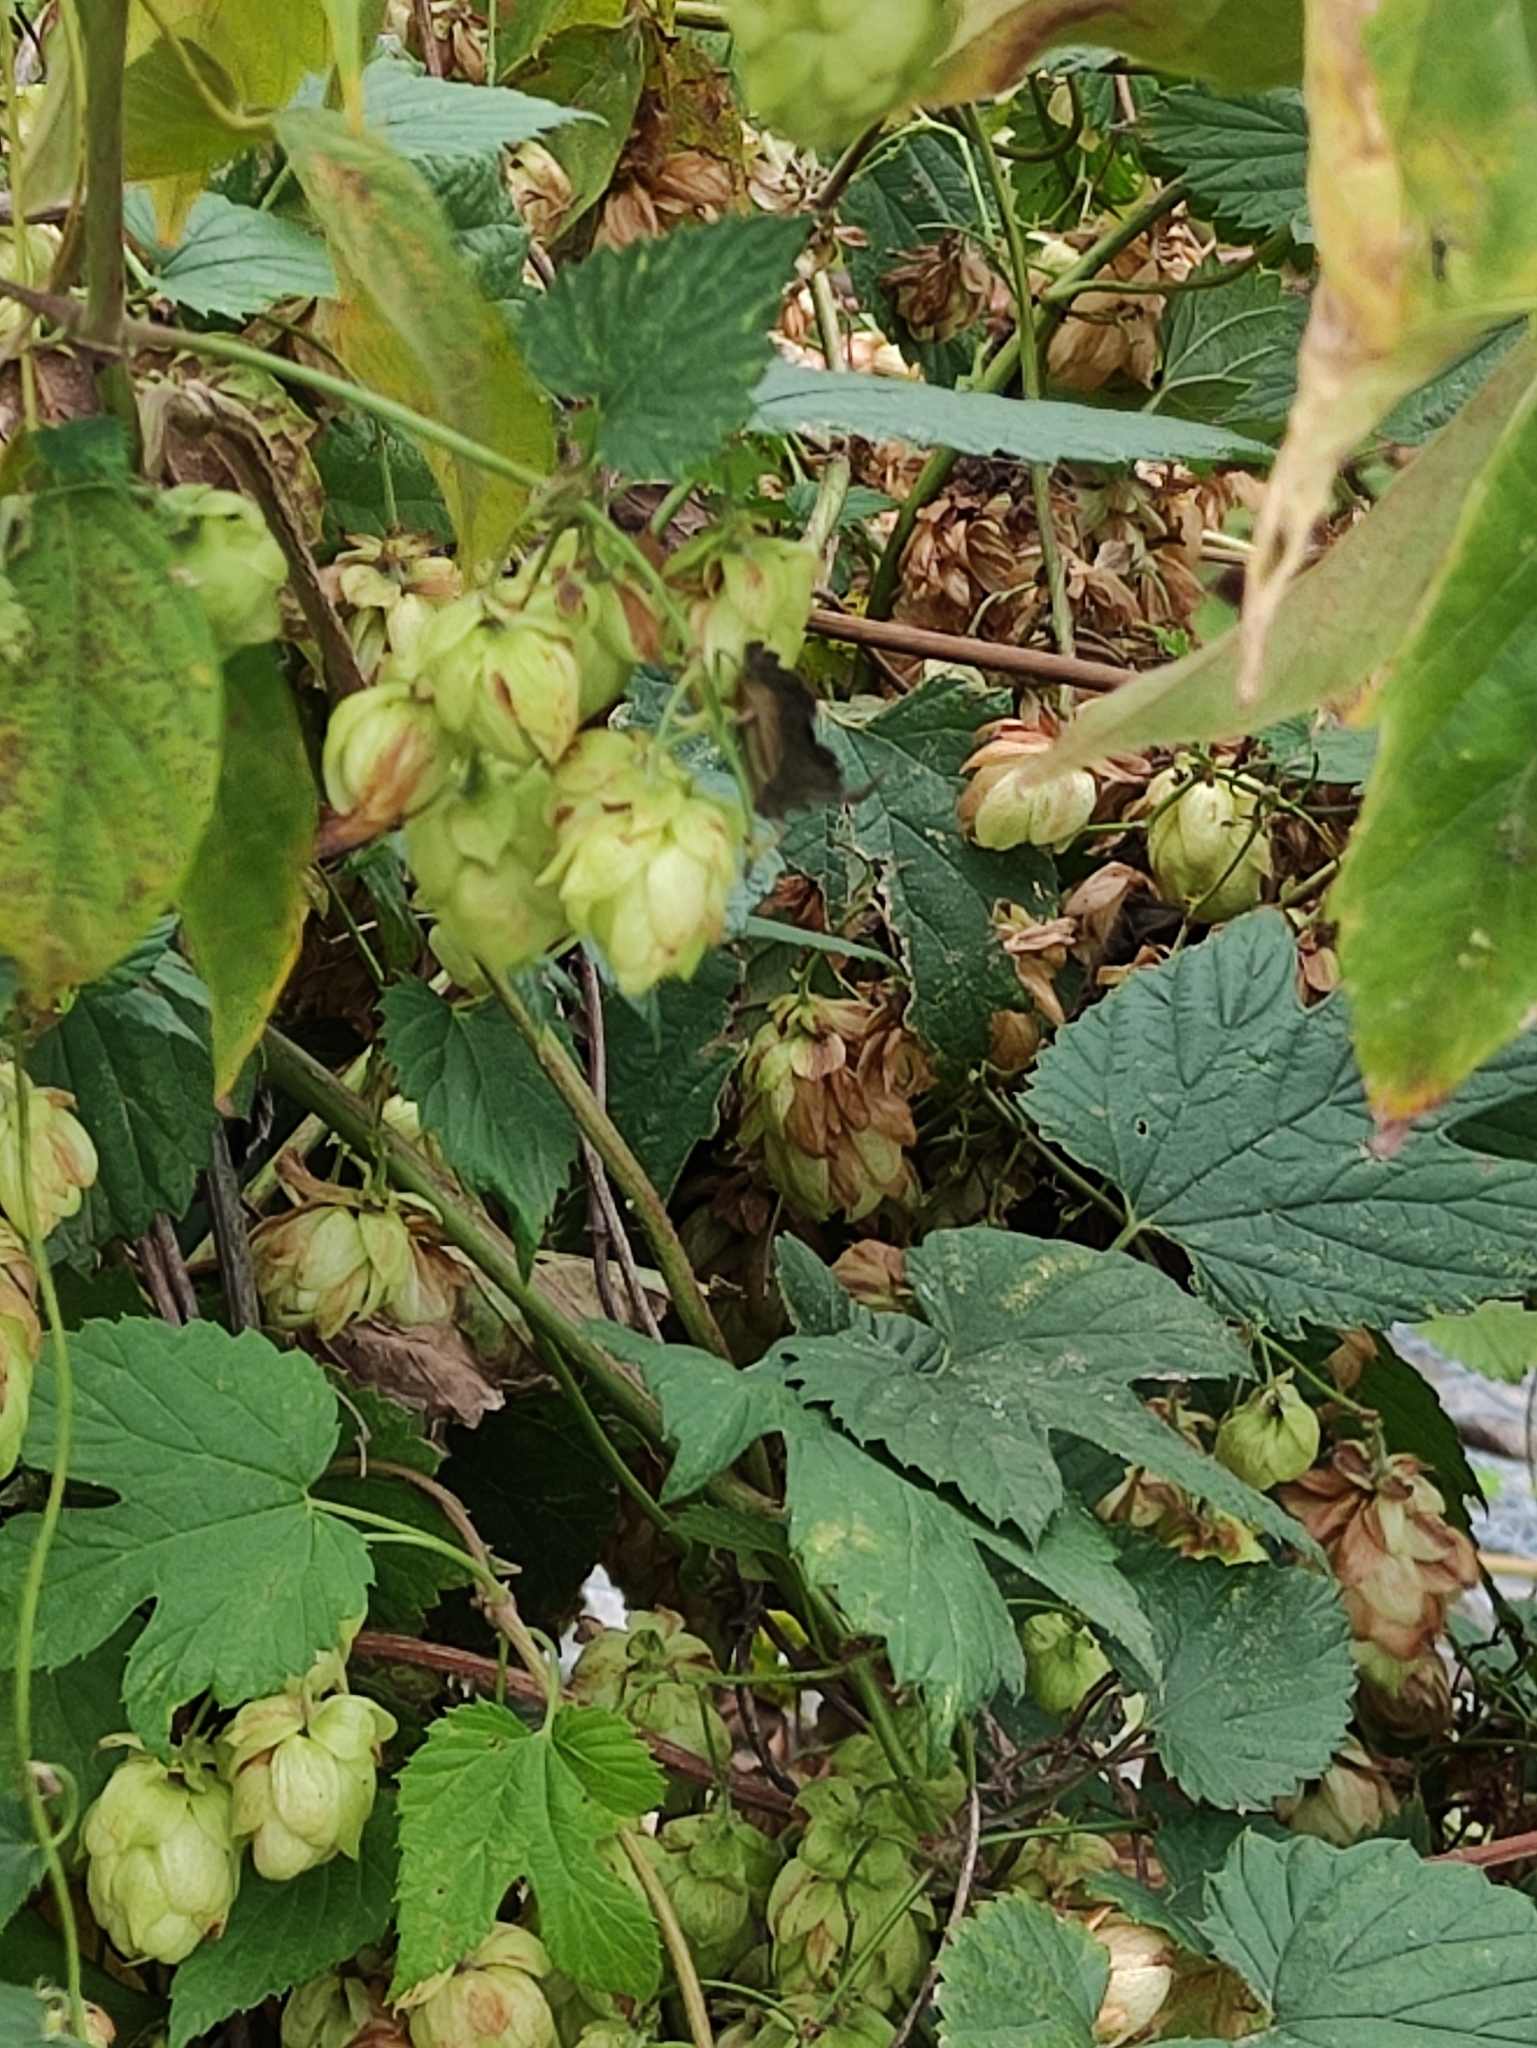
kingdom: Plantae
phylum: Tracheophyta
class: Magnoliopsida
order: Rosales
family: Cannabaceae
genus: Humulus
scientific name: Humulus lupulus
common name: Hop
